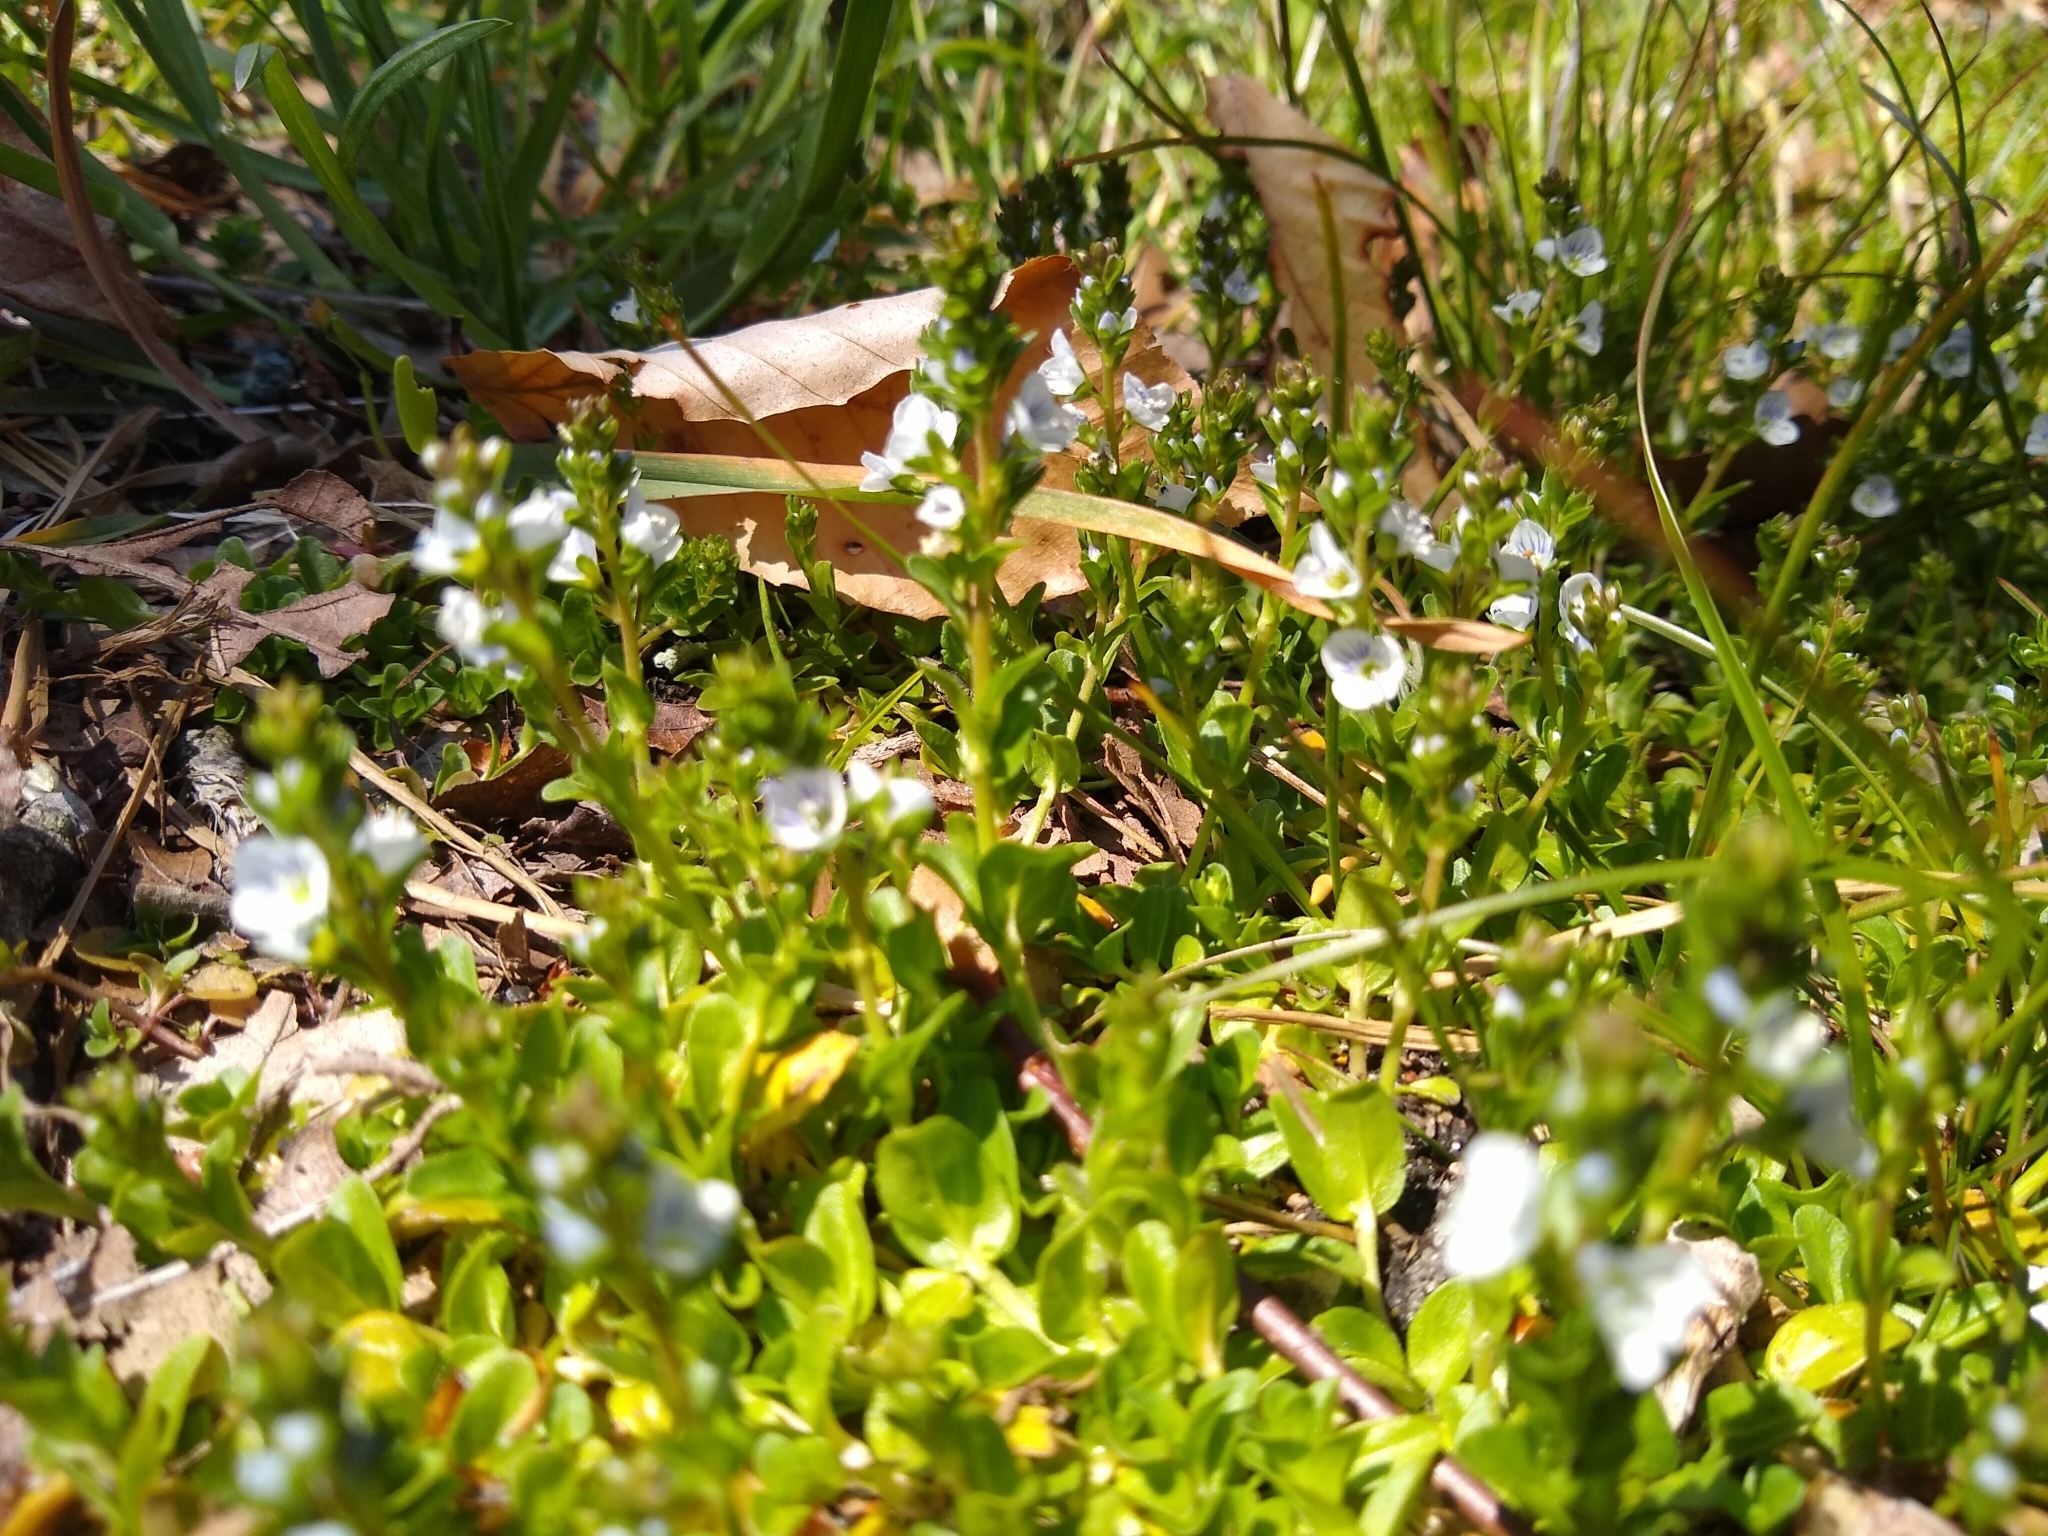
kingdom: Plantae
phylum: Tracheophyta
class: Magnoliopsida
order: Lamiales
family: Plantaginaceae
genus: Veronica
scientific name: Veronica serpyllifolia
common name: Thyme-leaved speedwell
